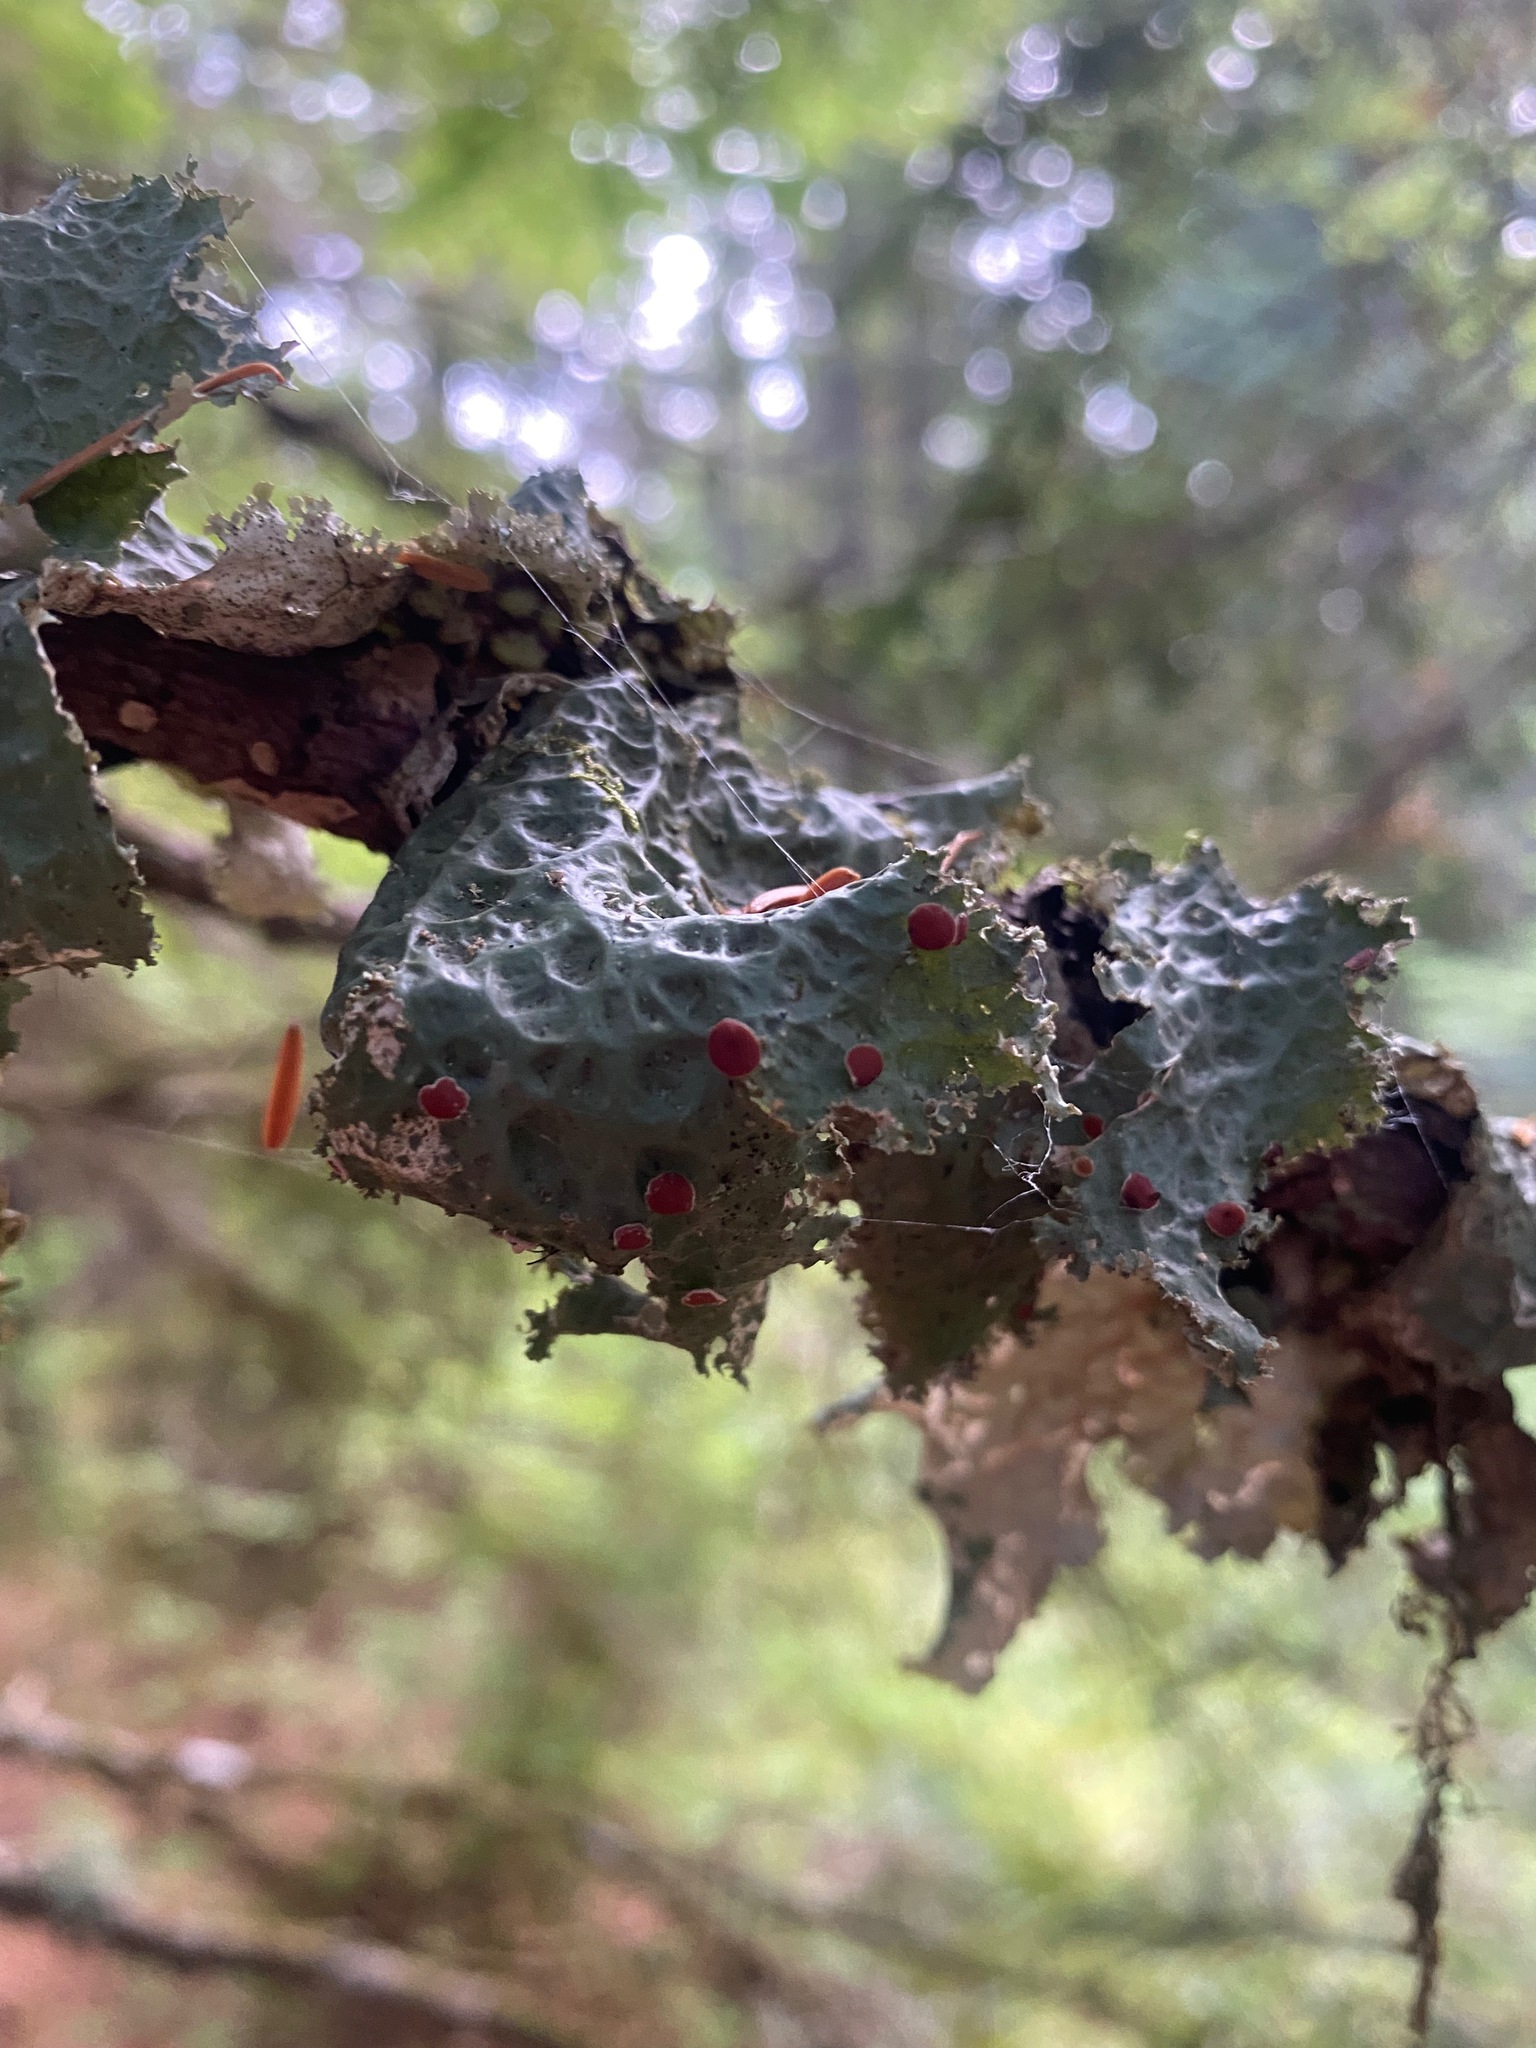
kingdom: Fungi
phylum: Ascomycota
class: Lecanoromycetes
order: Peltigerales
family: Lobariaceae
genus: Lobaria
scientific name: Lobaria oregana
